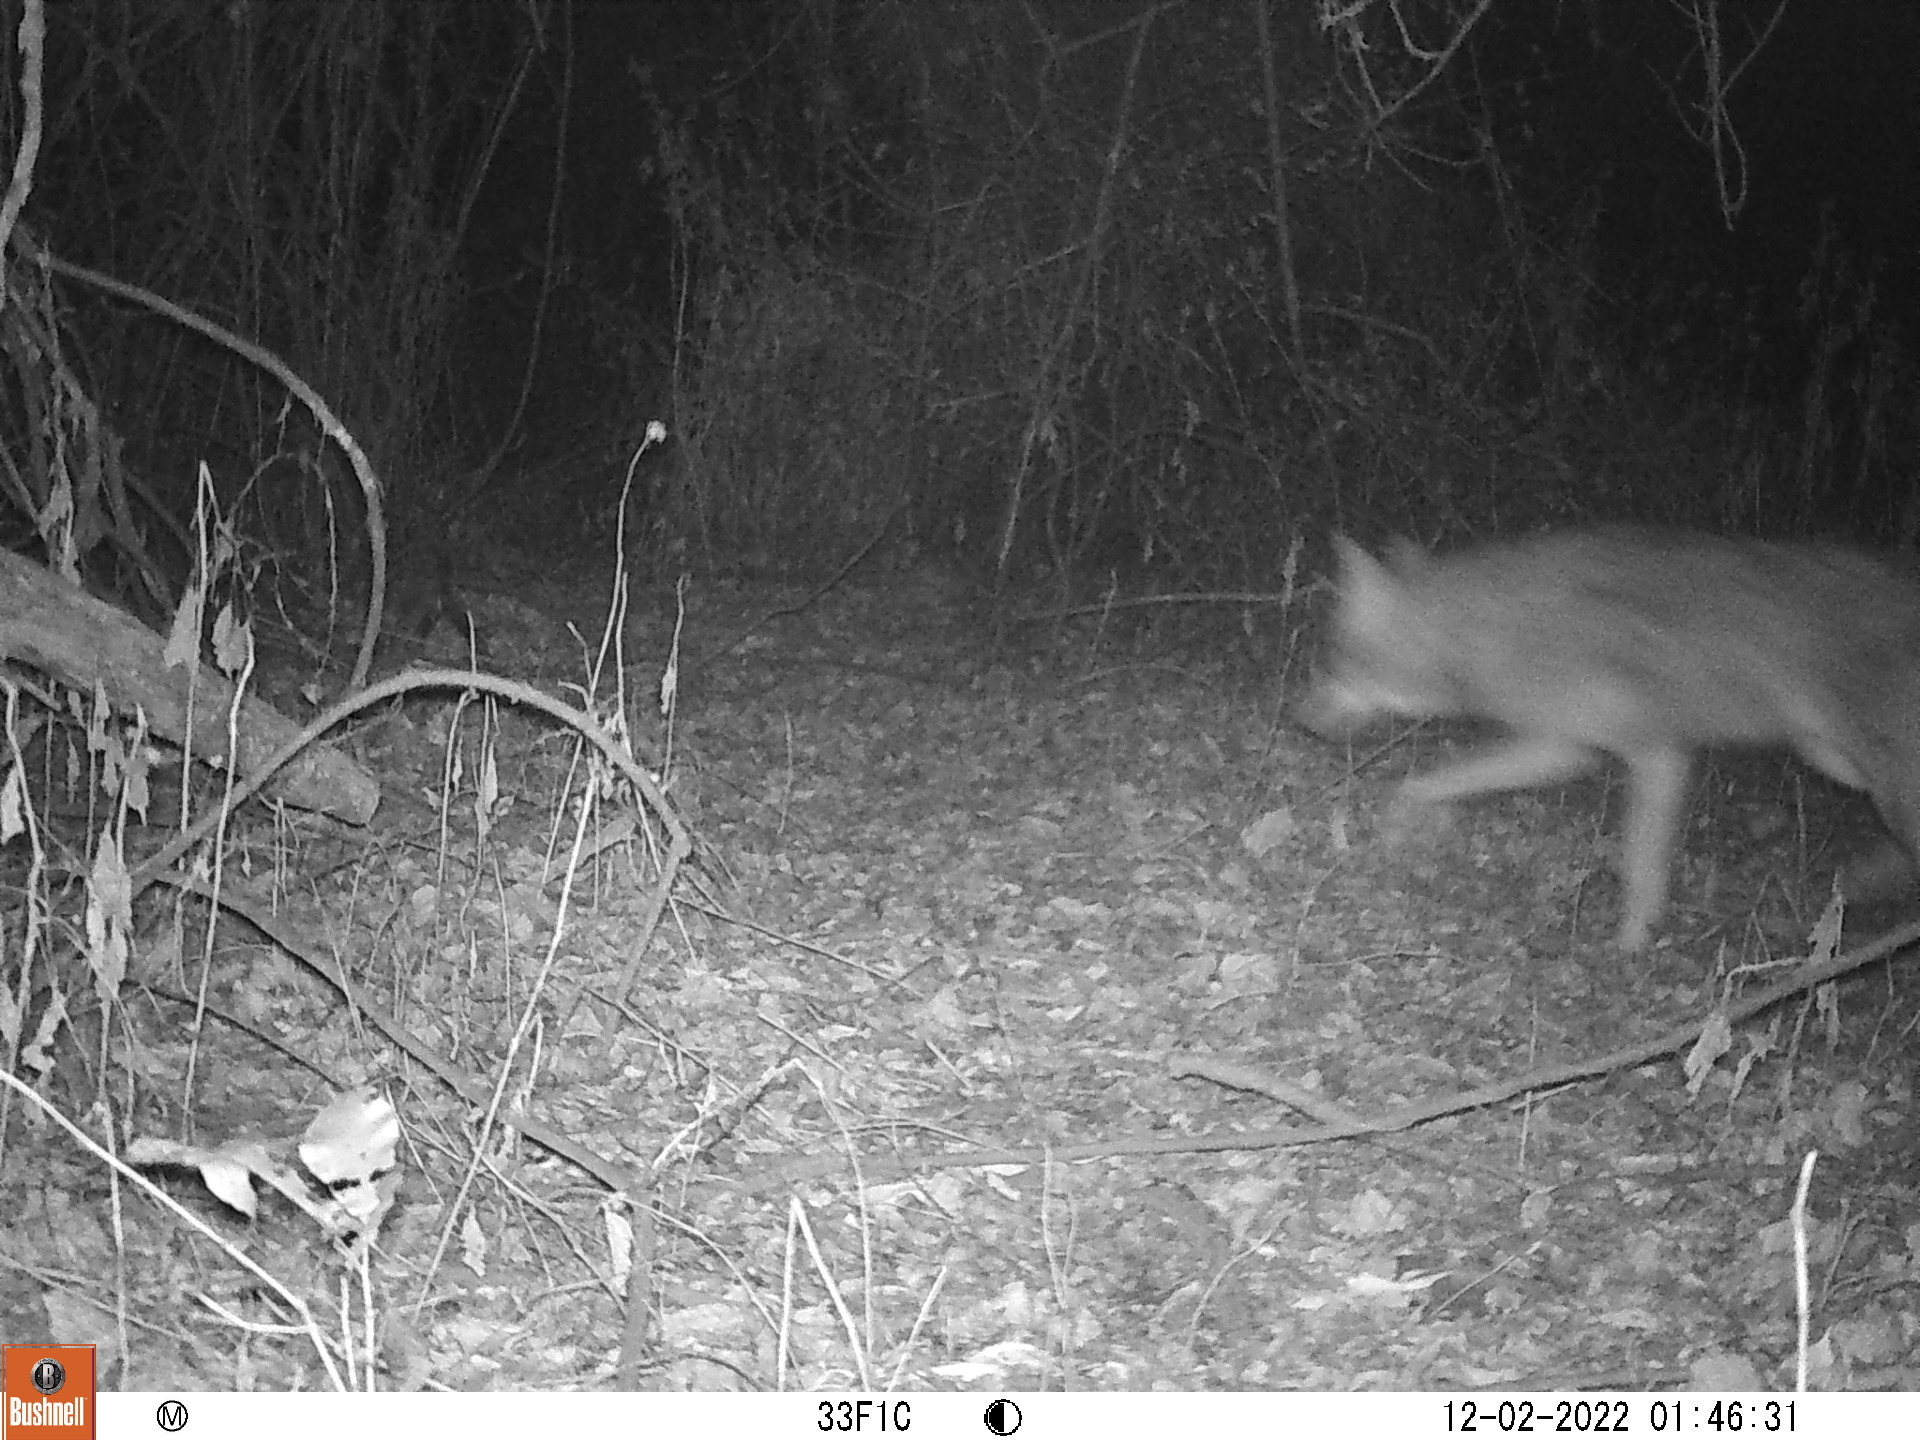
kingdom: Animalia
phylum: Chordata
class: Mammalia
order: Carnivora
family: Canidae
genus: Canis
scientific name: Canis latrans
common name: Coyote
